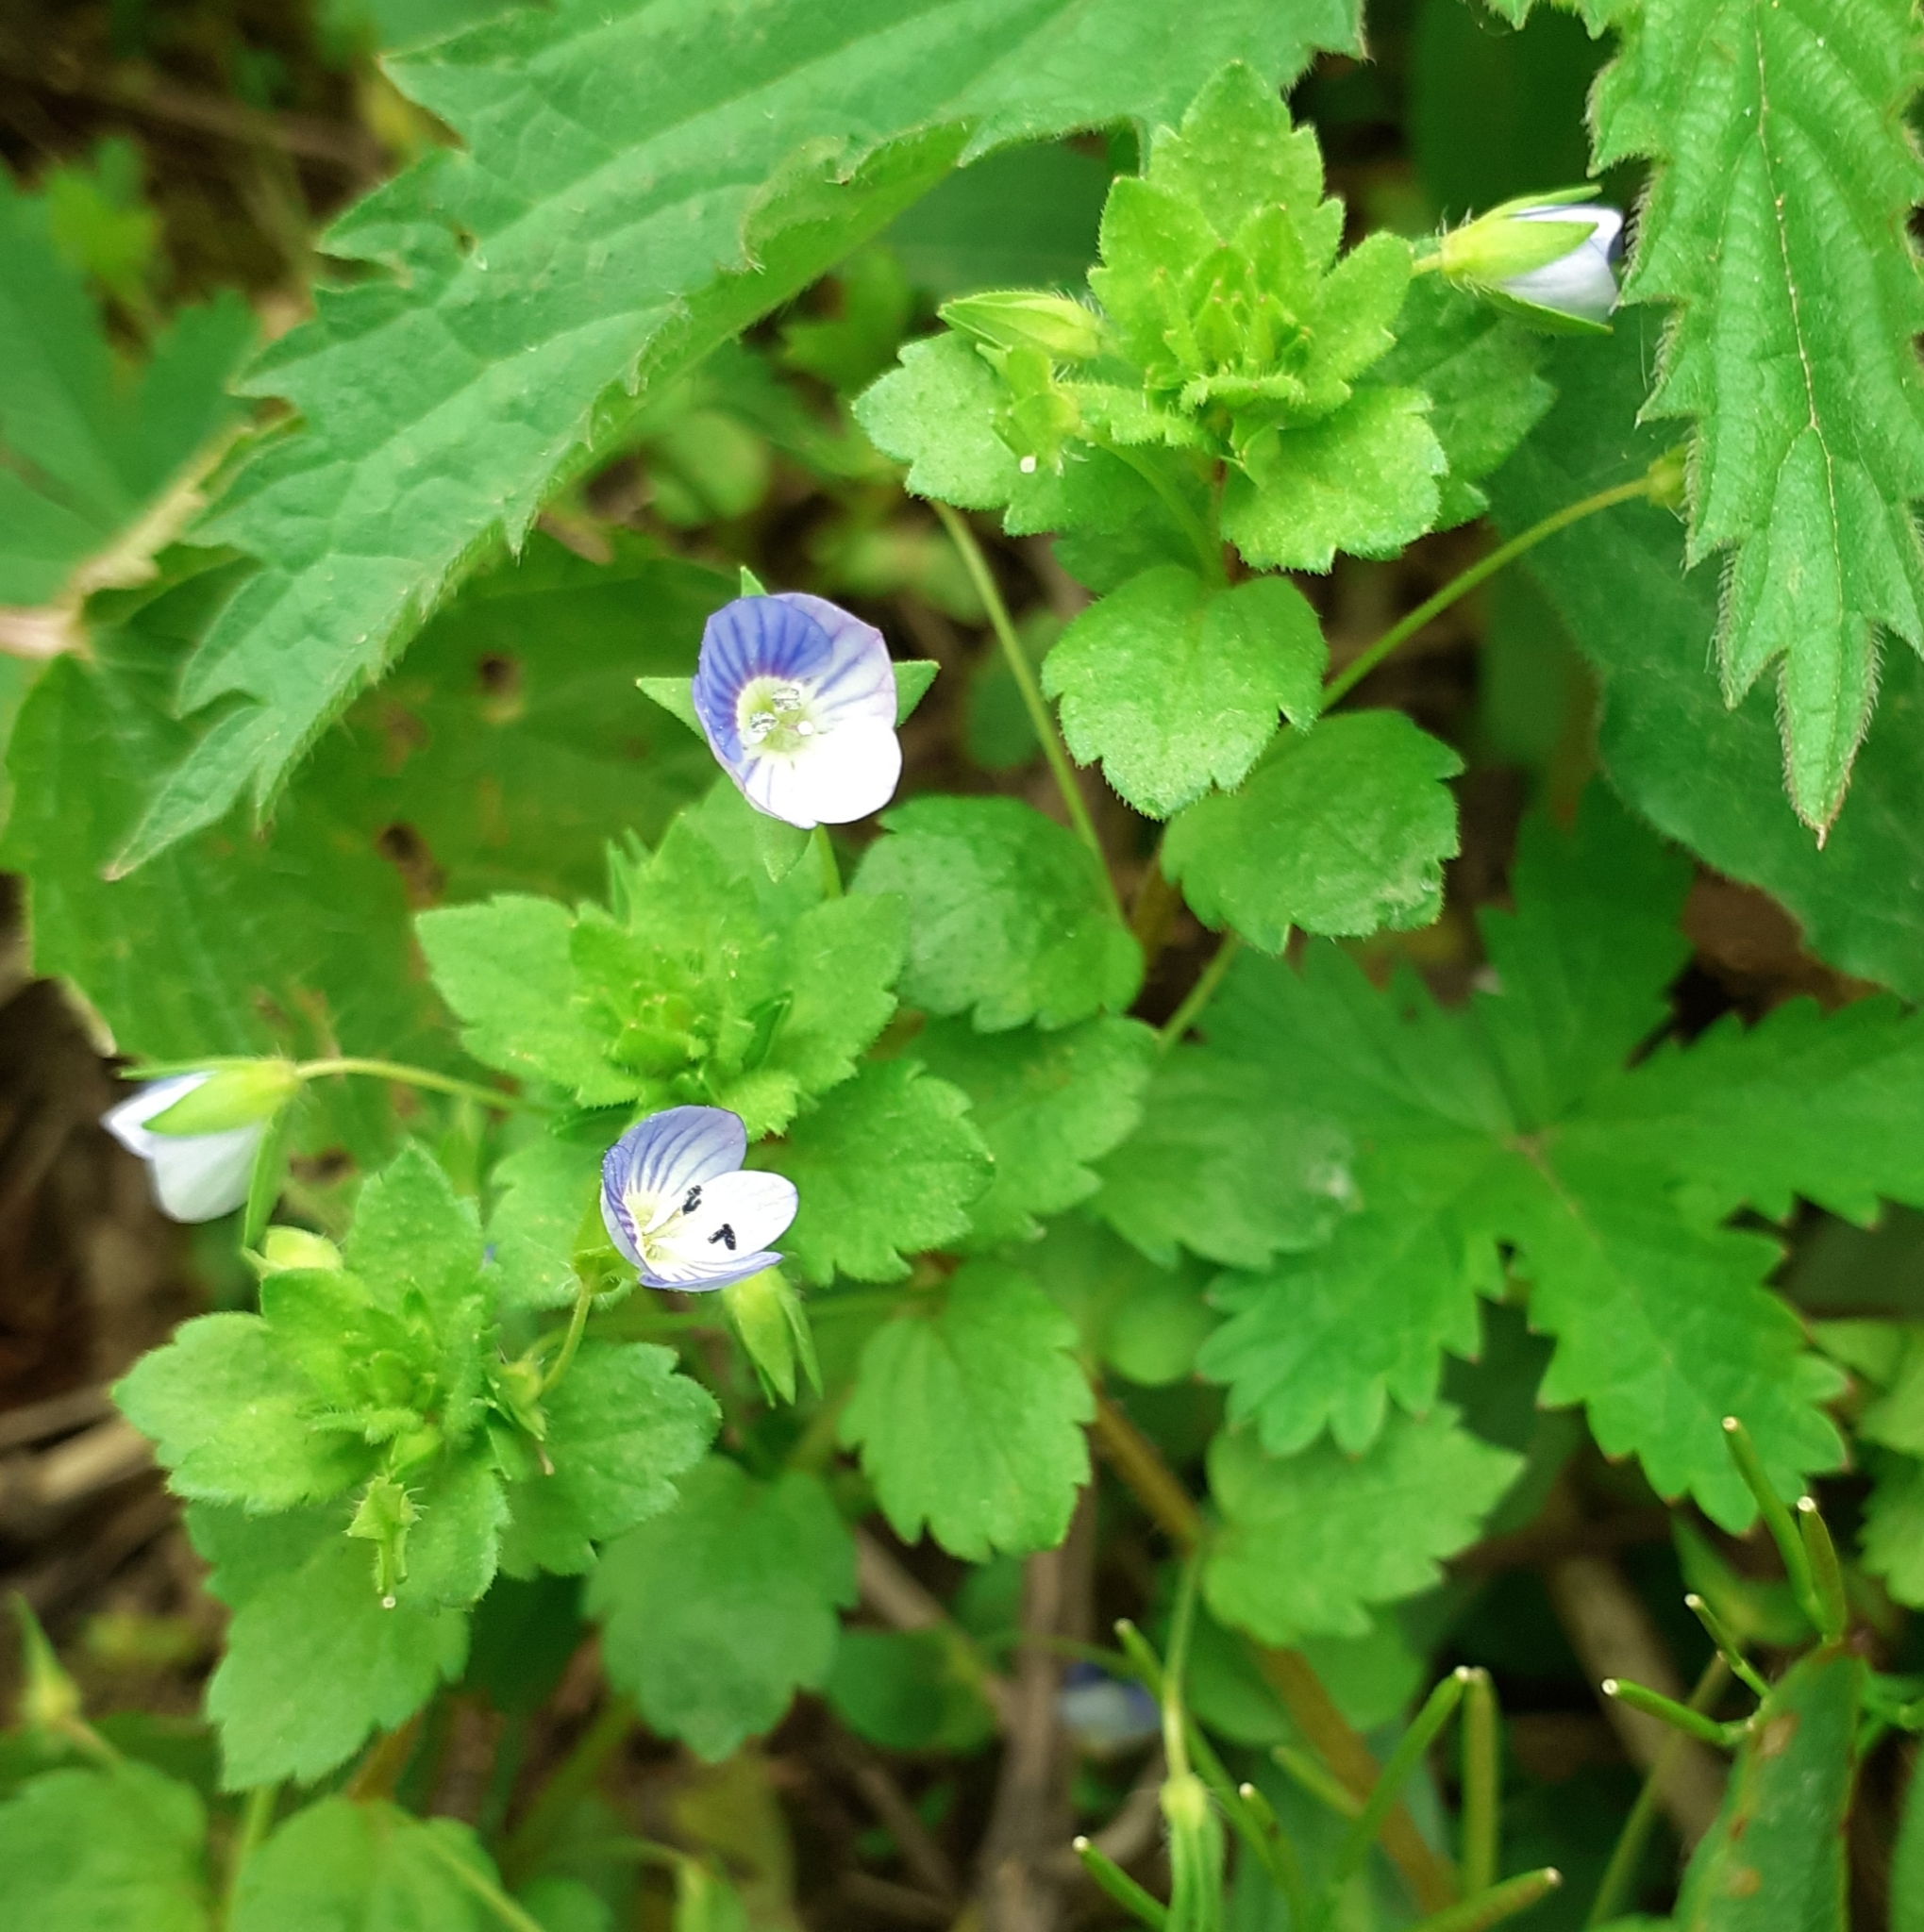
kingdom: Plantae
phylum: Tracheophyta
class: Magnoliopsida
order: Lamiales
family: Plantaginaceae
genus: Veronica
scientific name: Veronica persica
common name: Common field-speedwell
